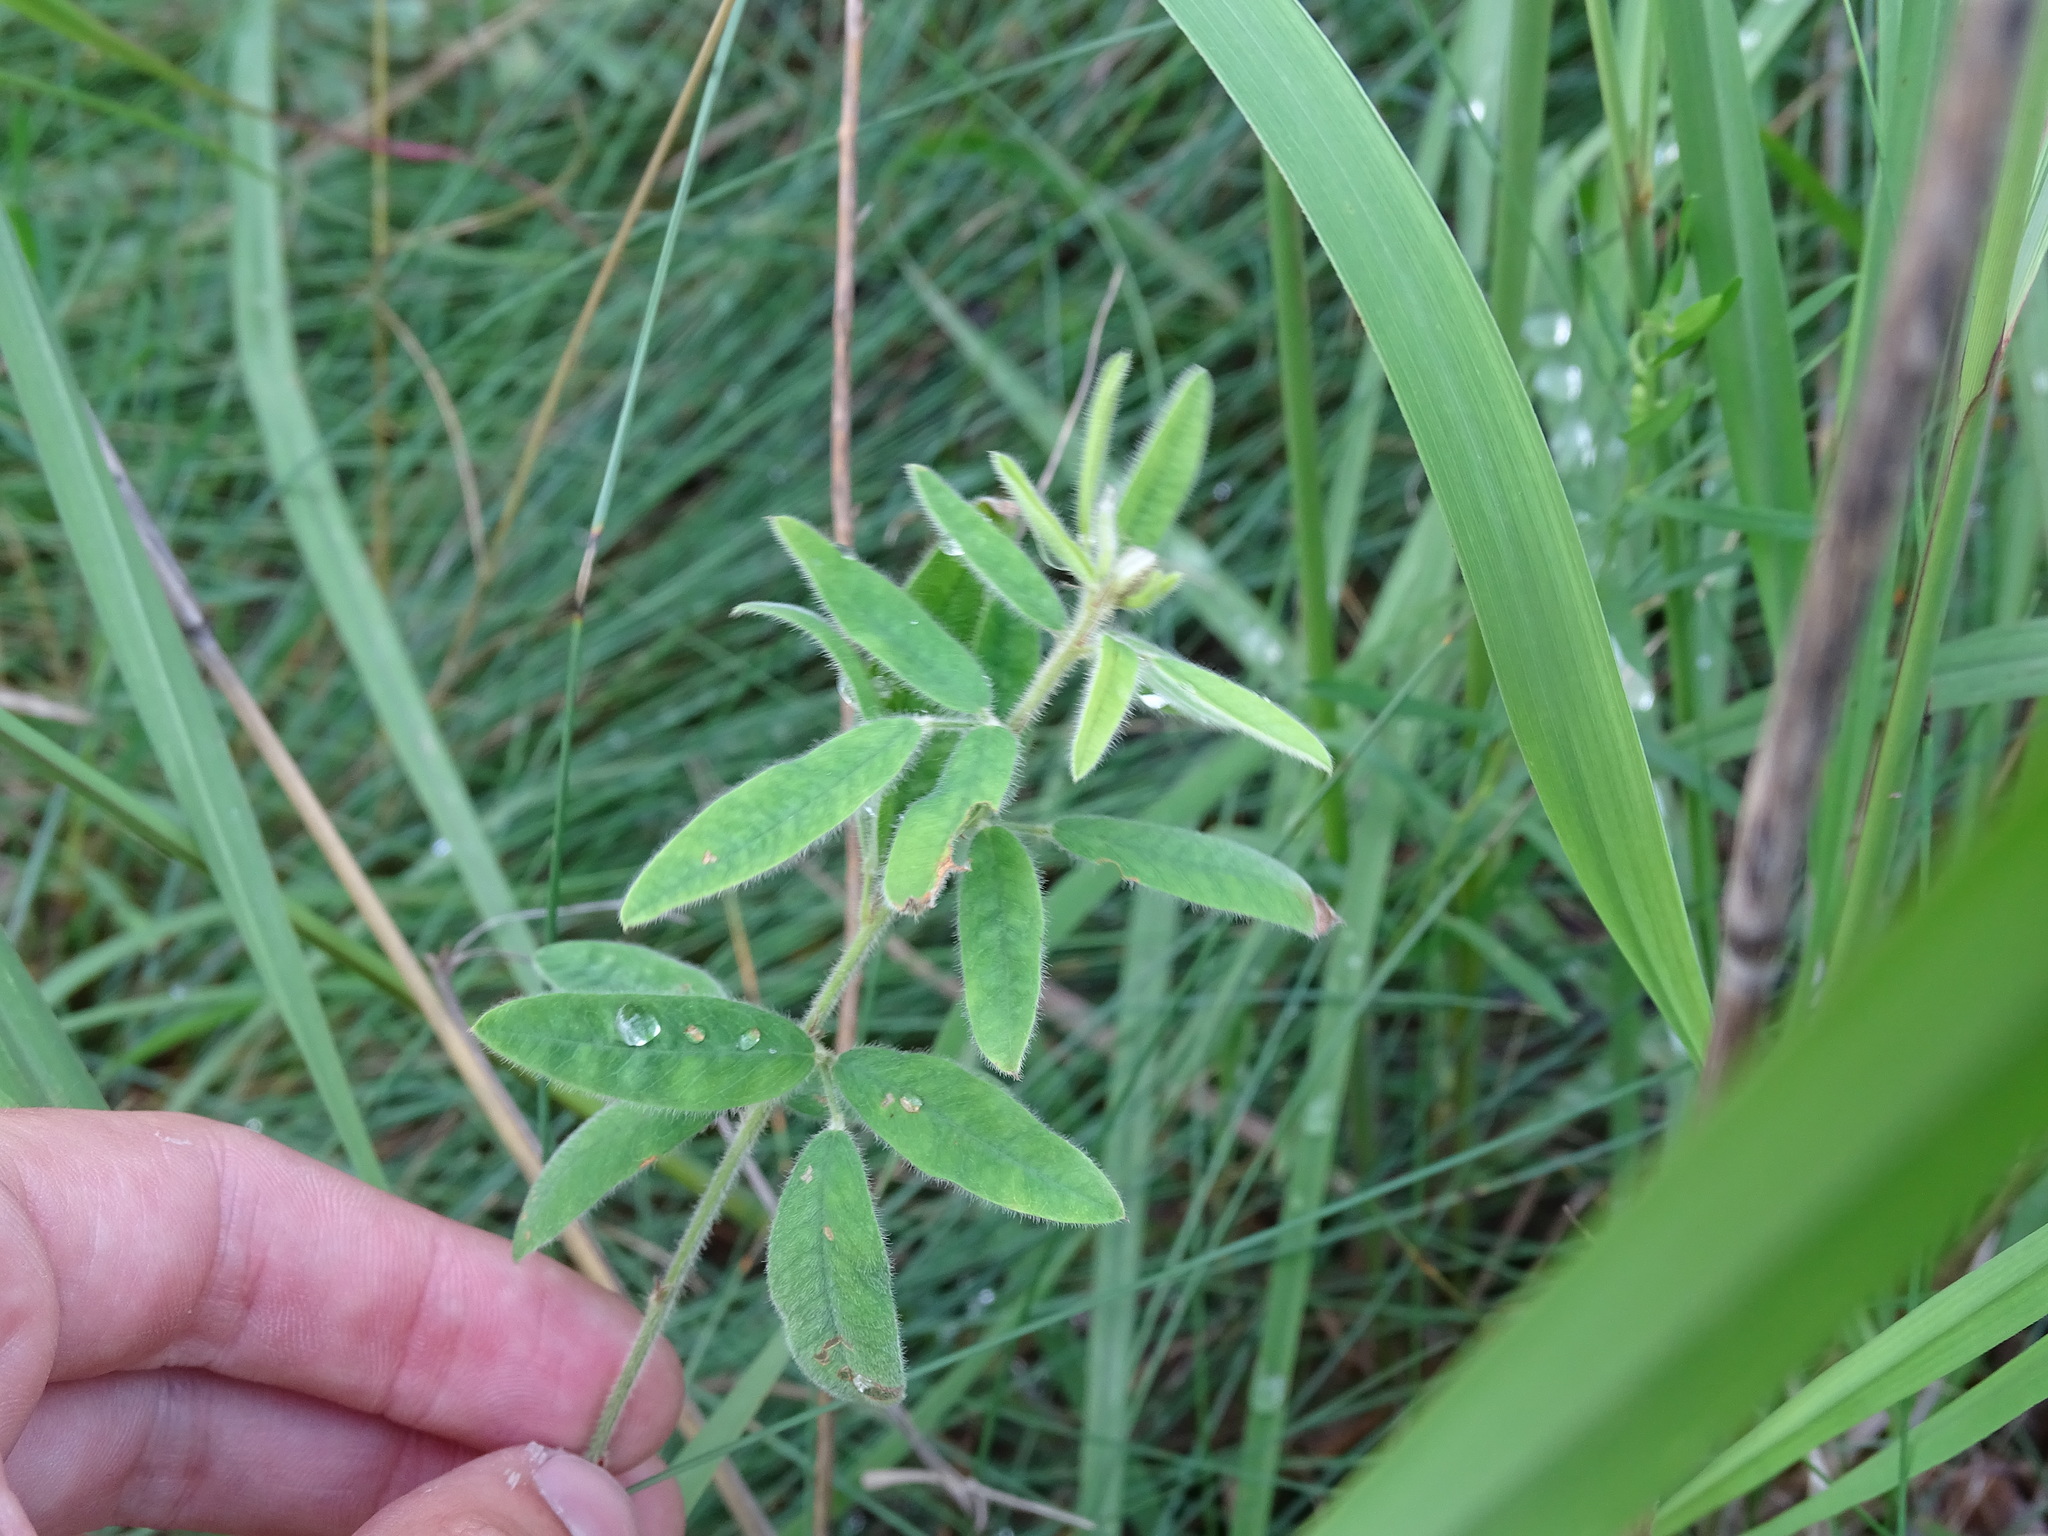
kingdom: Plantae
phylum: Tracheophyta
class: Magnoliopsida
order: Fabales
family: Fabaceae
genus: Lespedeza
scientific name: Lespedeza capitata
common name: Dusty clover
